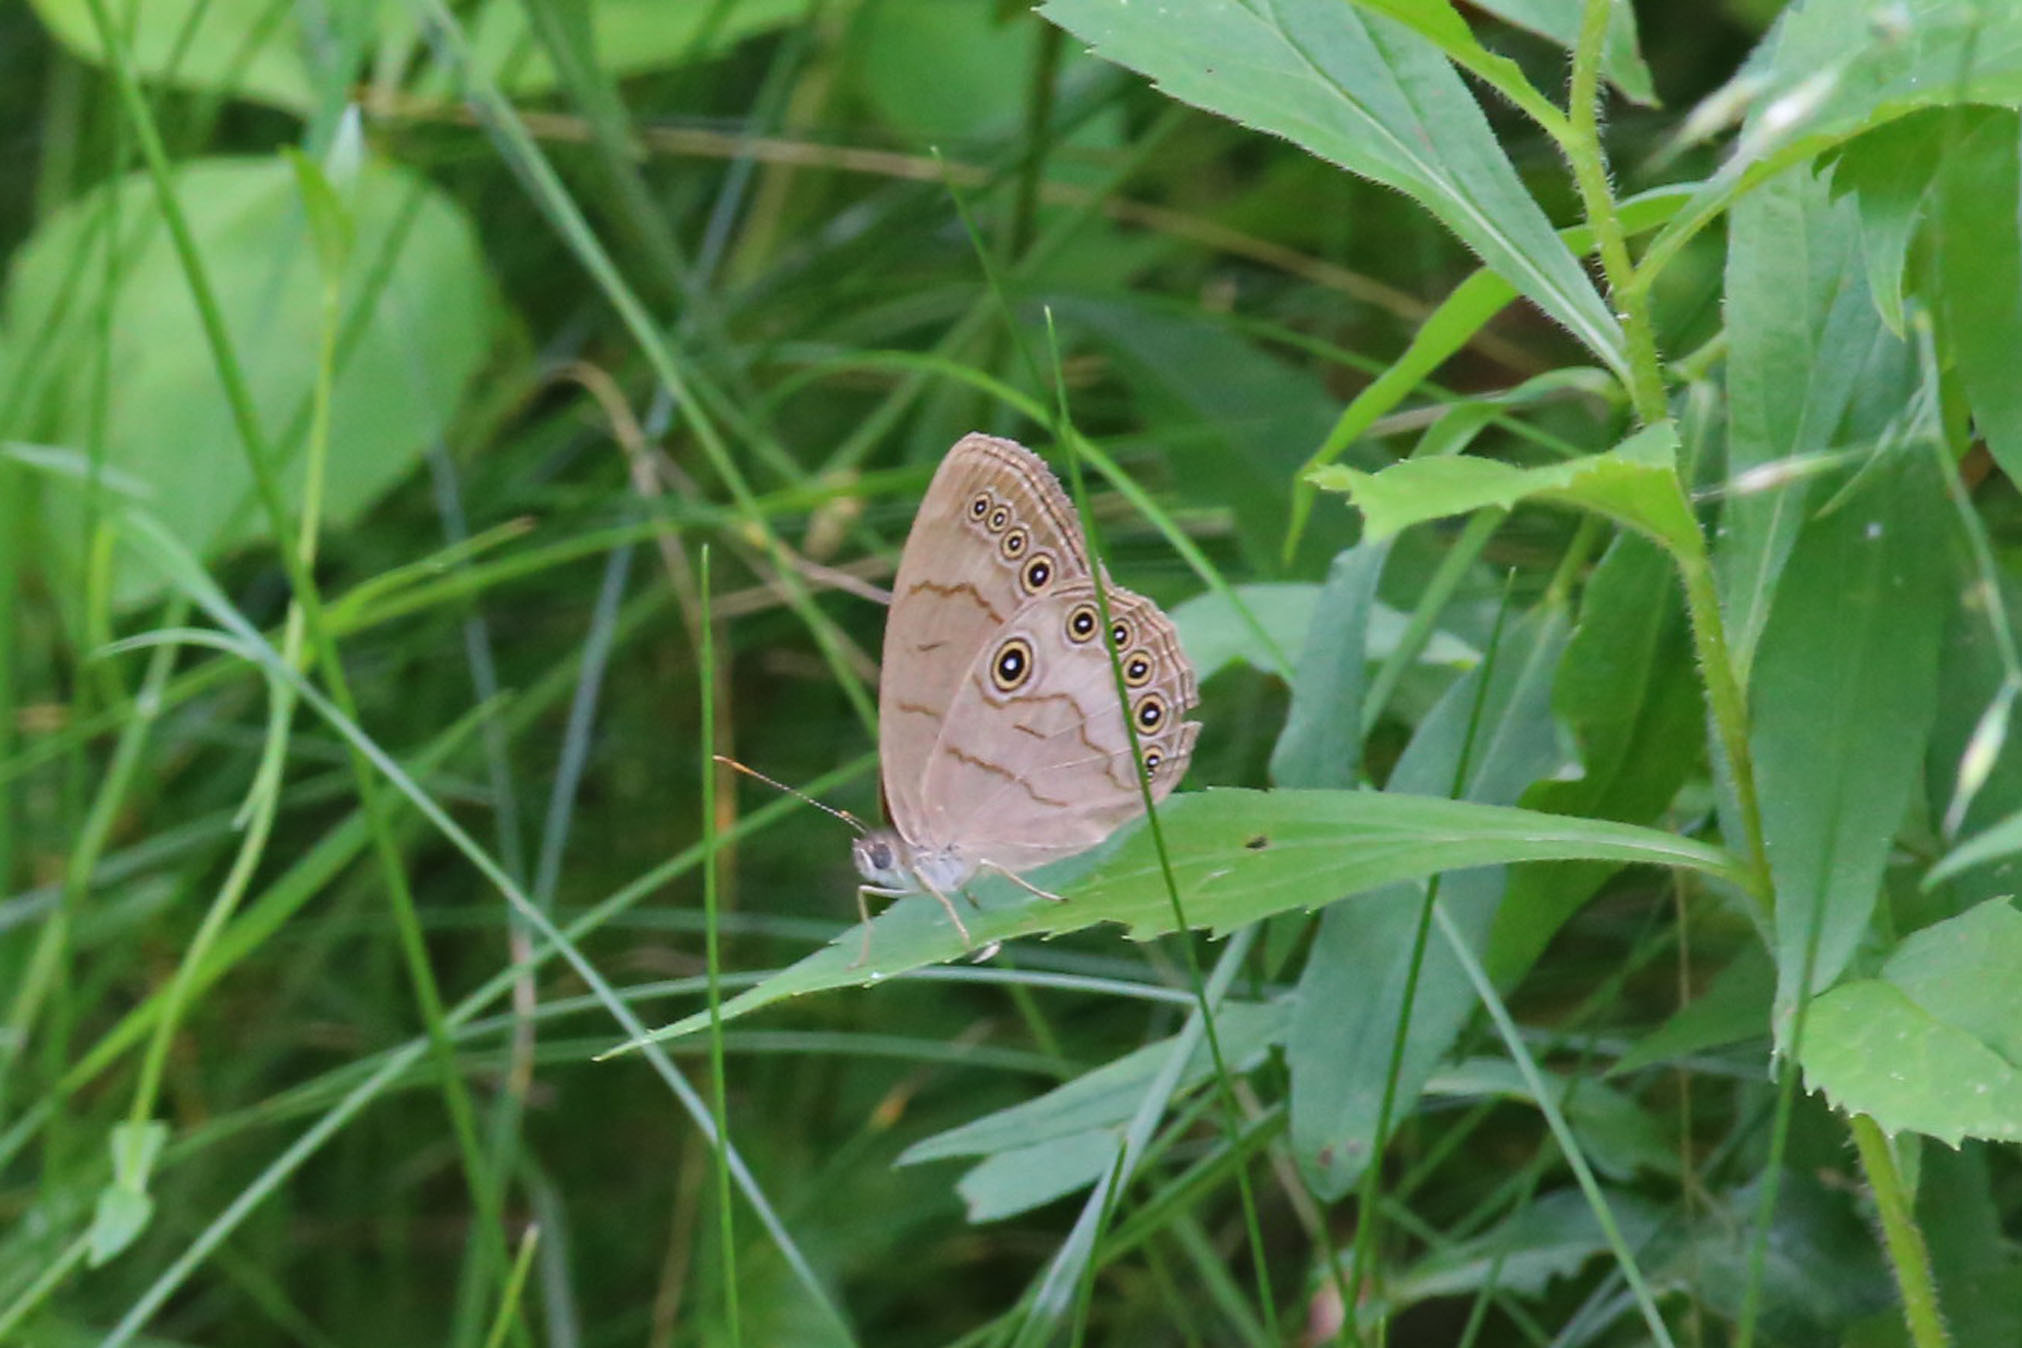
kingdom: Animalia
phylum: Arthropoda
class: Insecta
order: Lepidoptera
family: Nymphalidae
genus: Lethe
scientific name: Lethe eurydice
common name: Eyed brown
